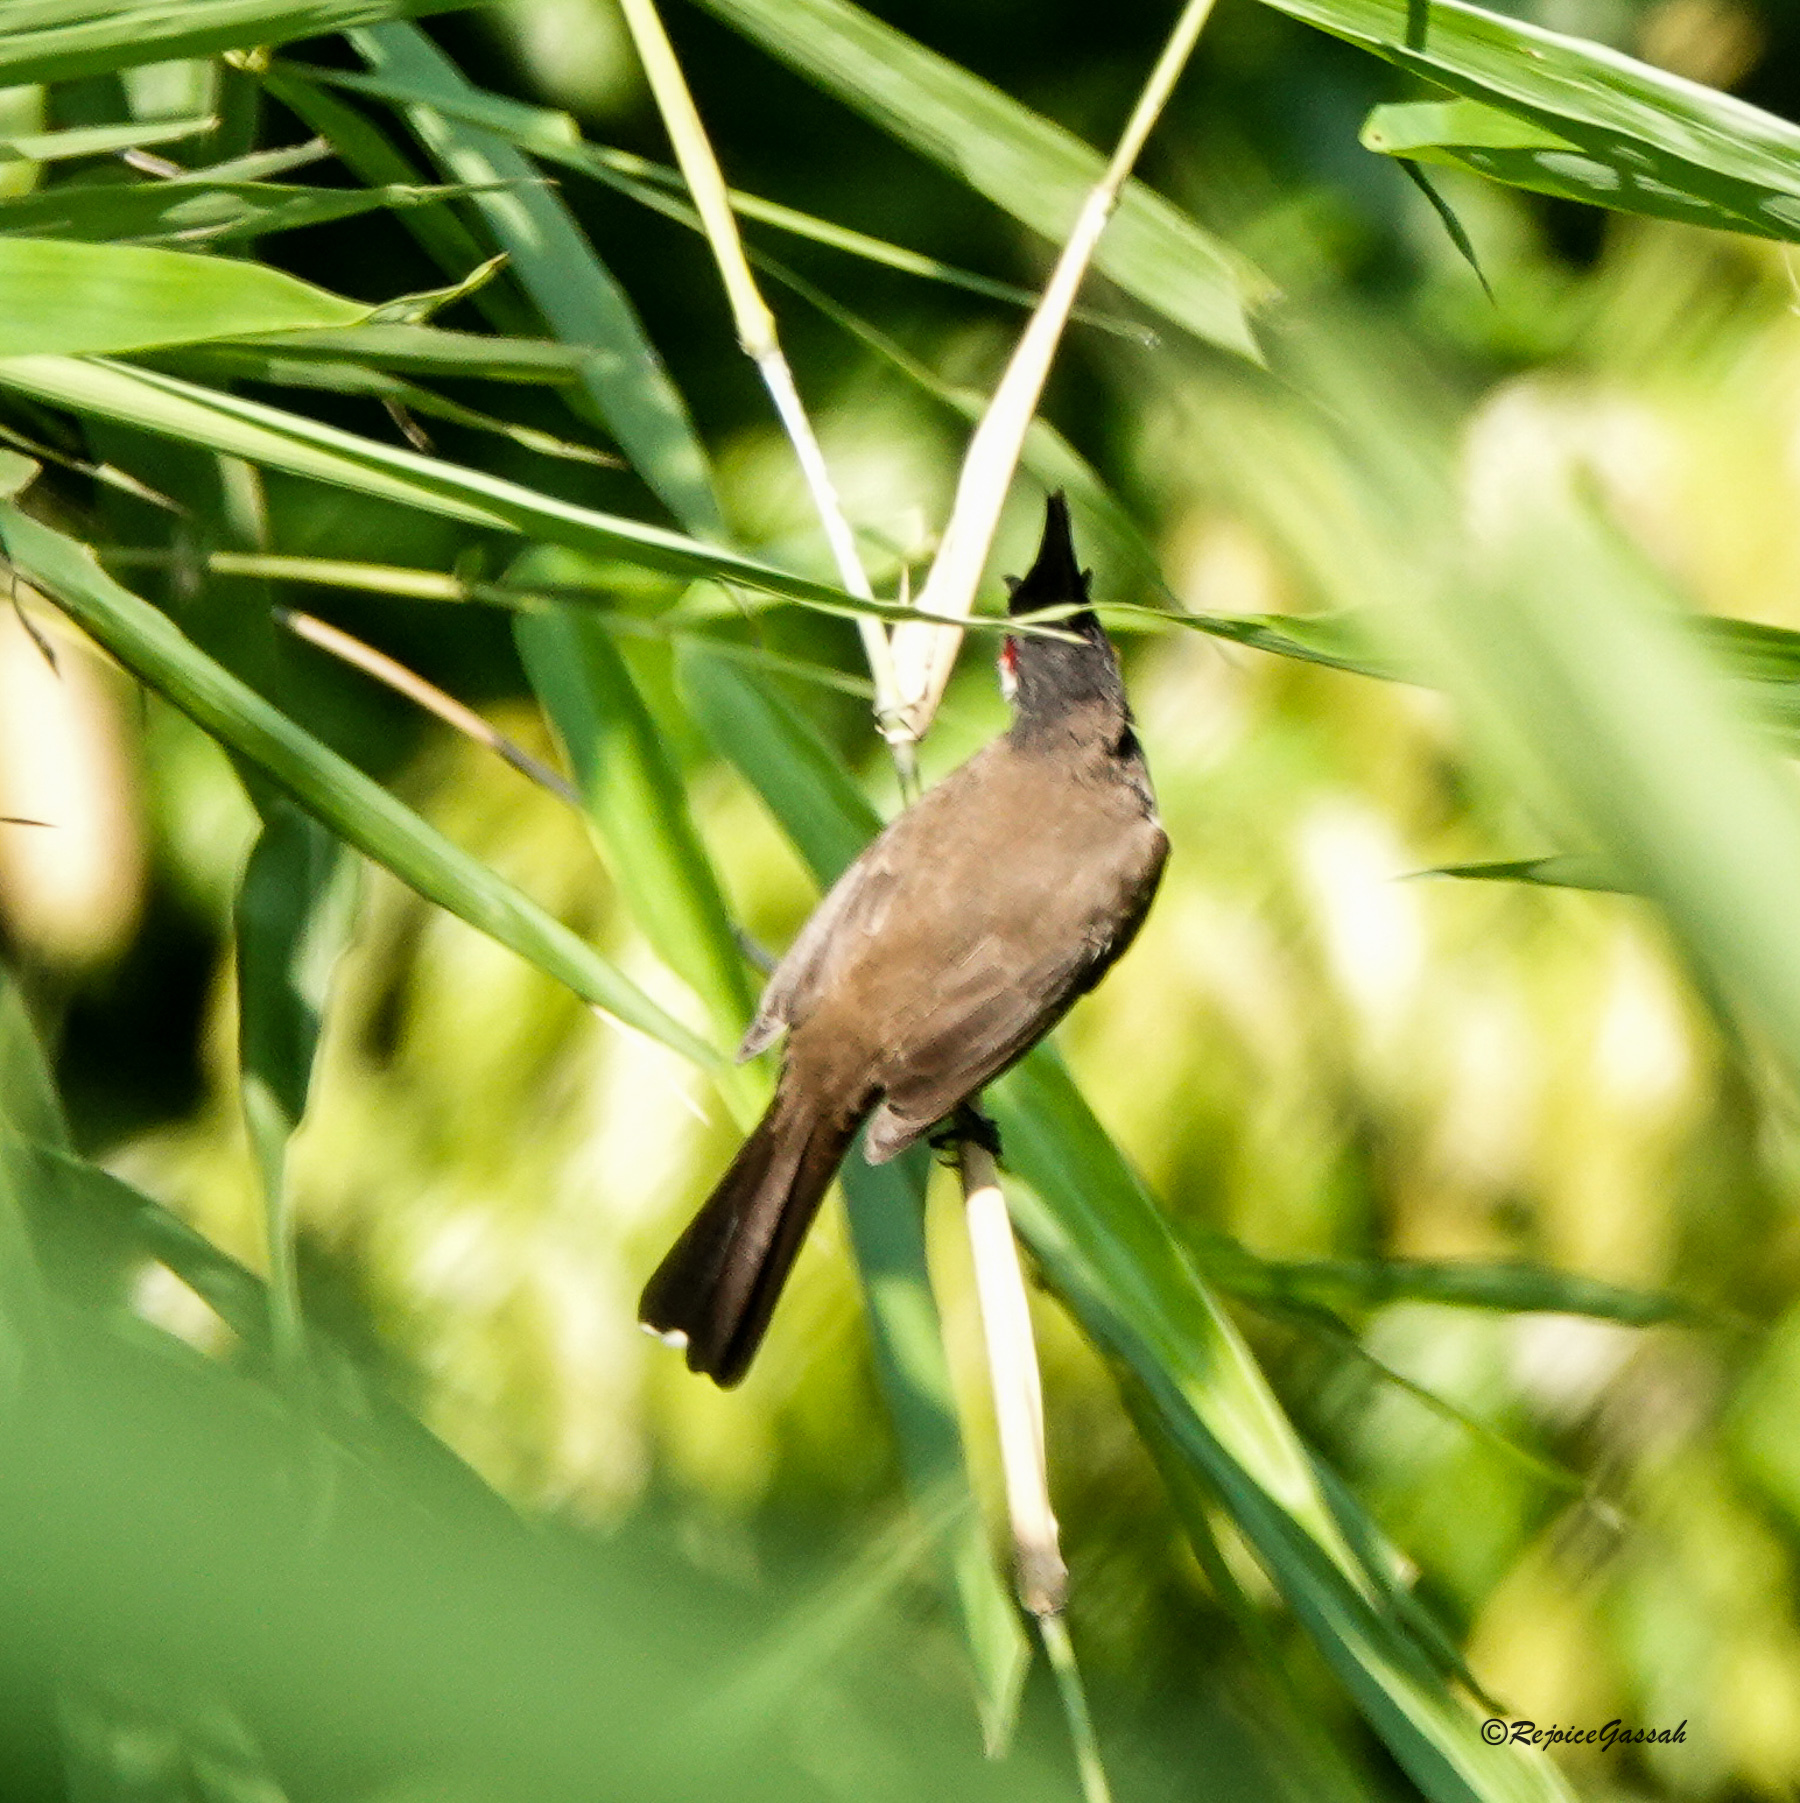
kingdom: Animalia
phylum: Chordata
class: Aves
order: Passeriformes
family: Pycnonotidae
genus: Pycnonotus
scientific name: Pycnonotus jocosus
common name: Red-whiskered bulbul
